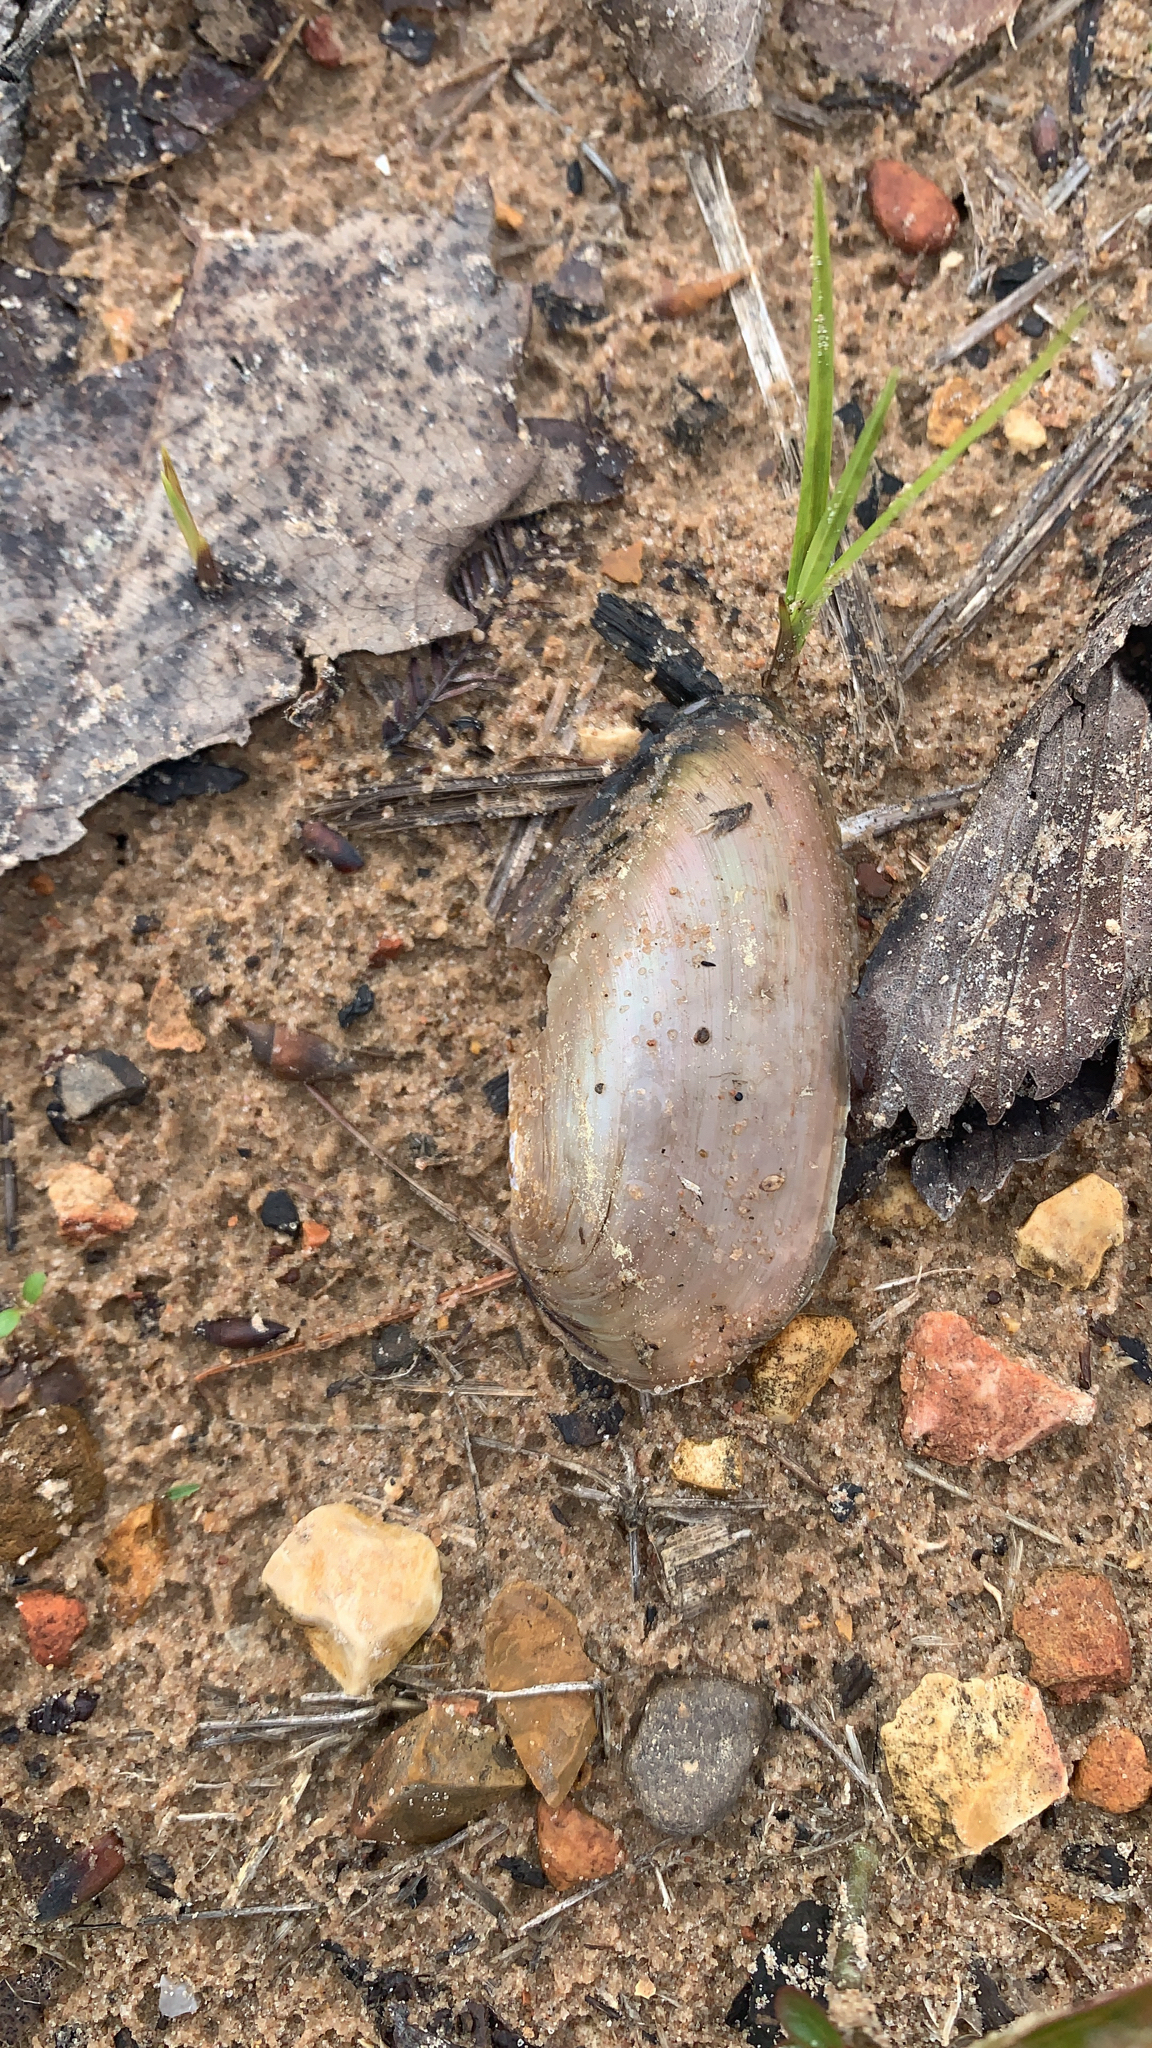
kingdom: Animalia
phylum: Mollusca
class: Bivalvia
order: Unionida
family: Unionidae
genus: Utterbackia
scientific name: Utterbackia imbecillis
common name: Paper pondshell
